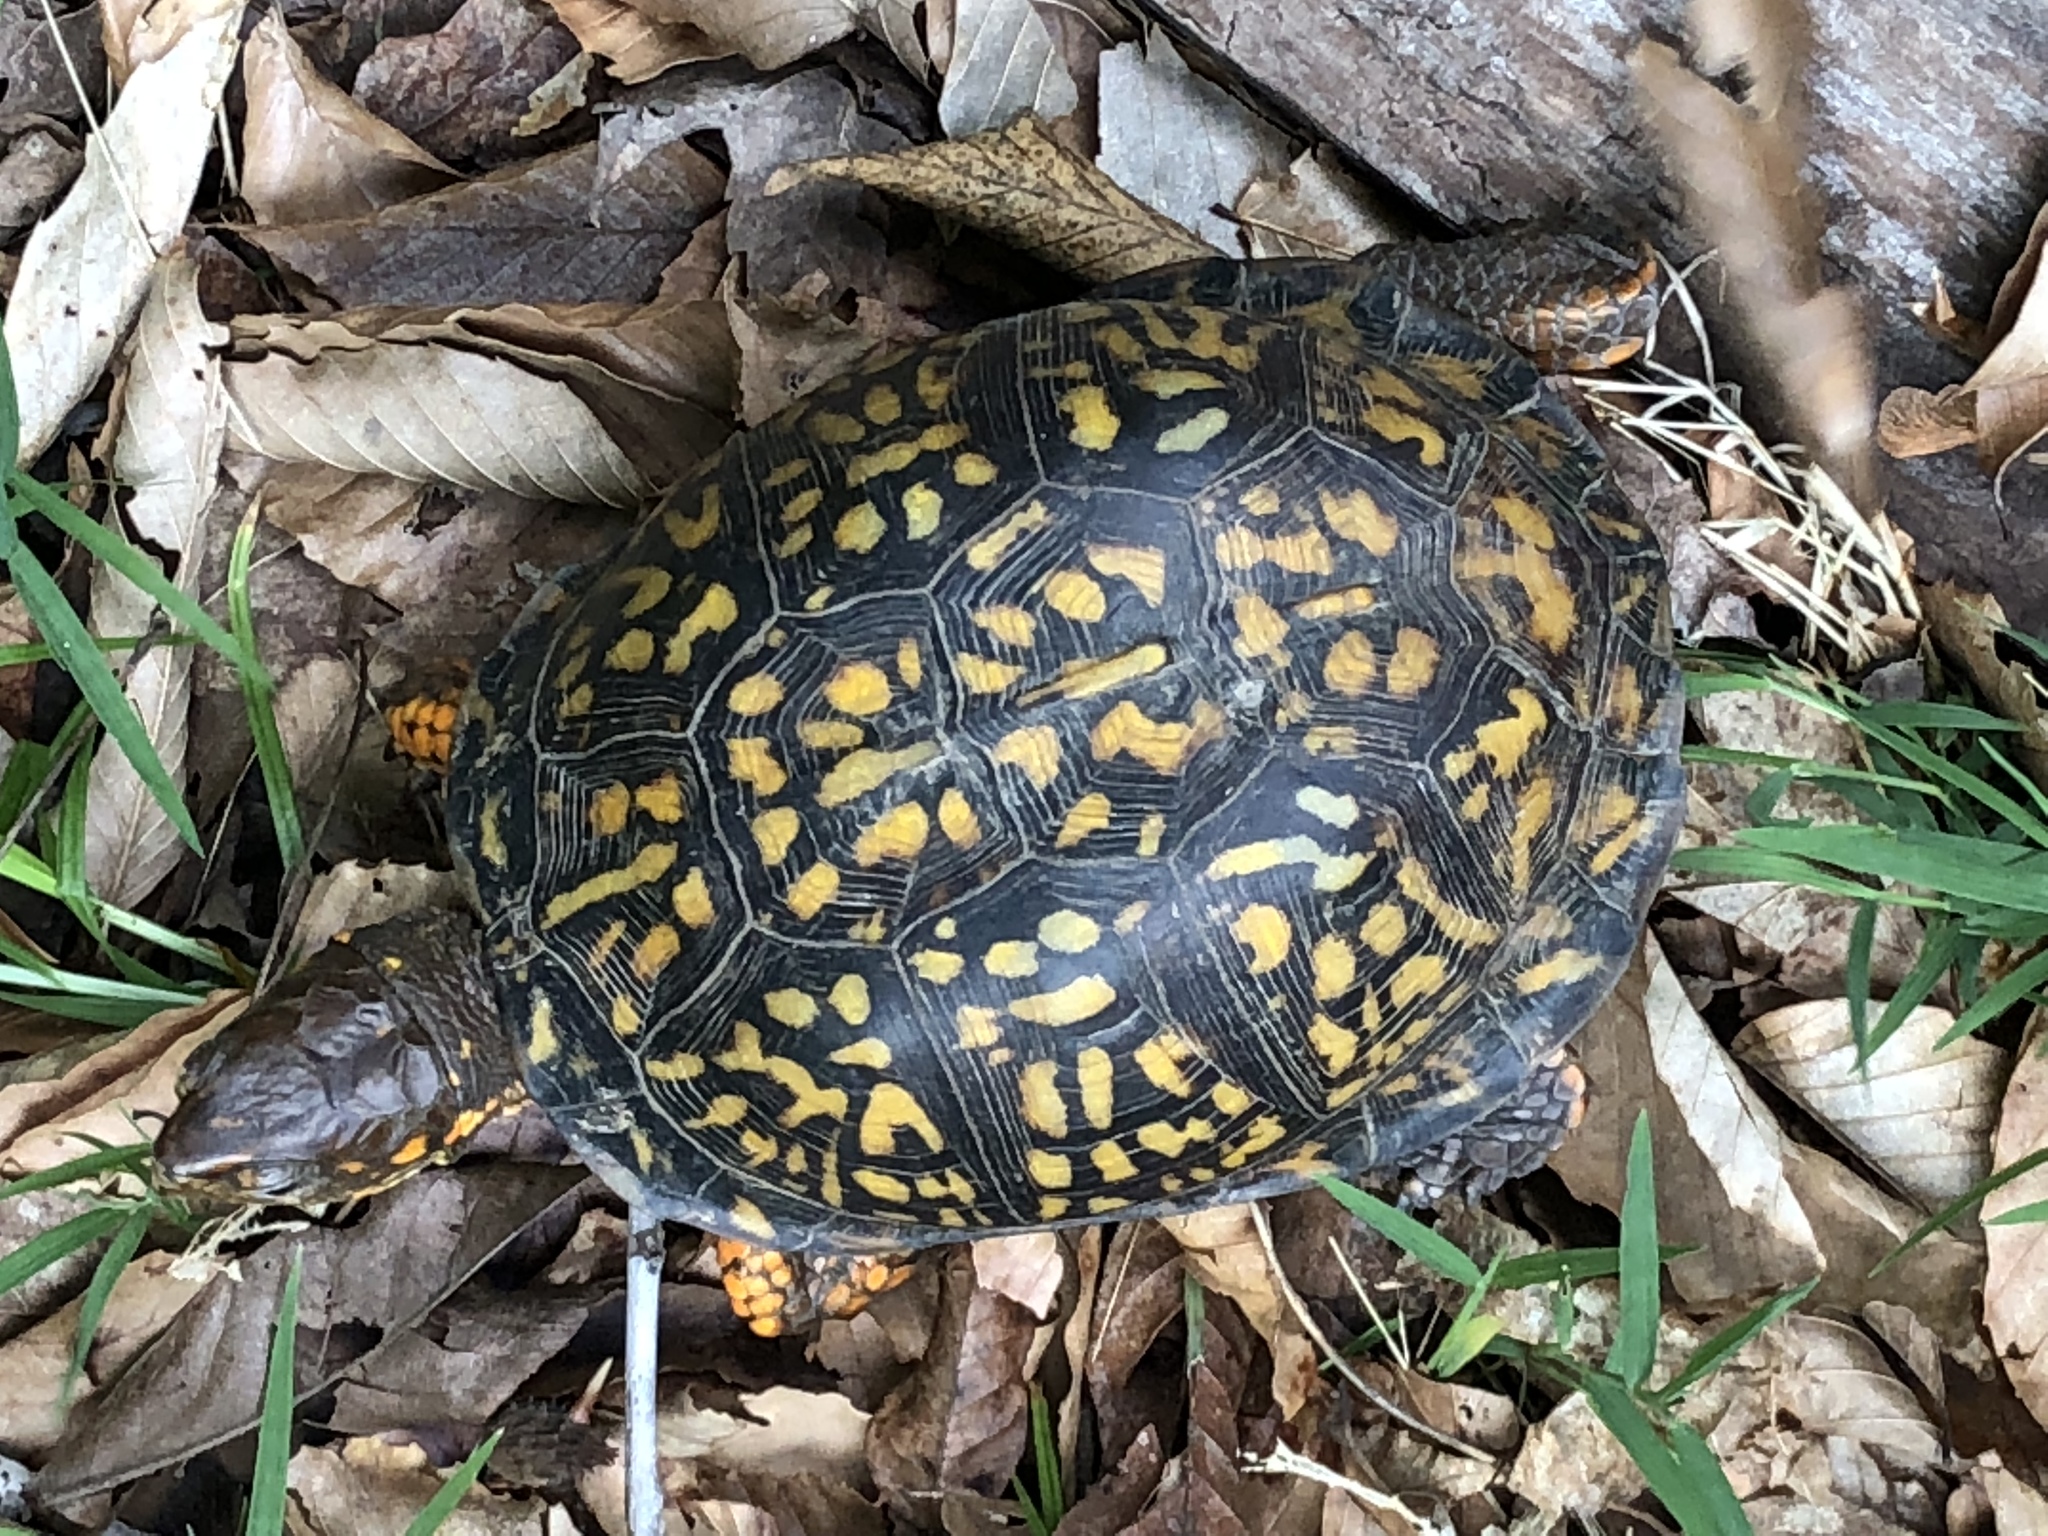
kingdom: Animalia
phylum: Chordata
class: Testudines
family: Emydidae
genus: Terrapene
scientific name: Terrapene carolina
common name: Common box turtle
